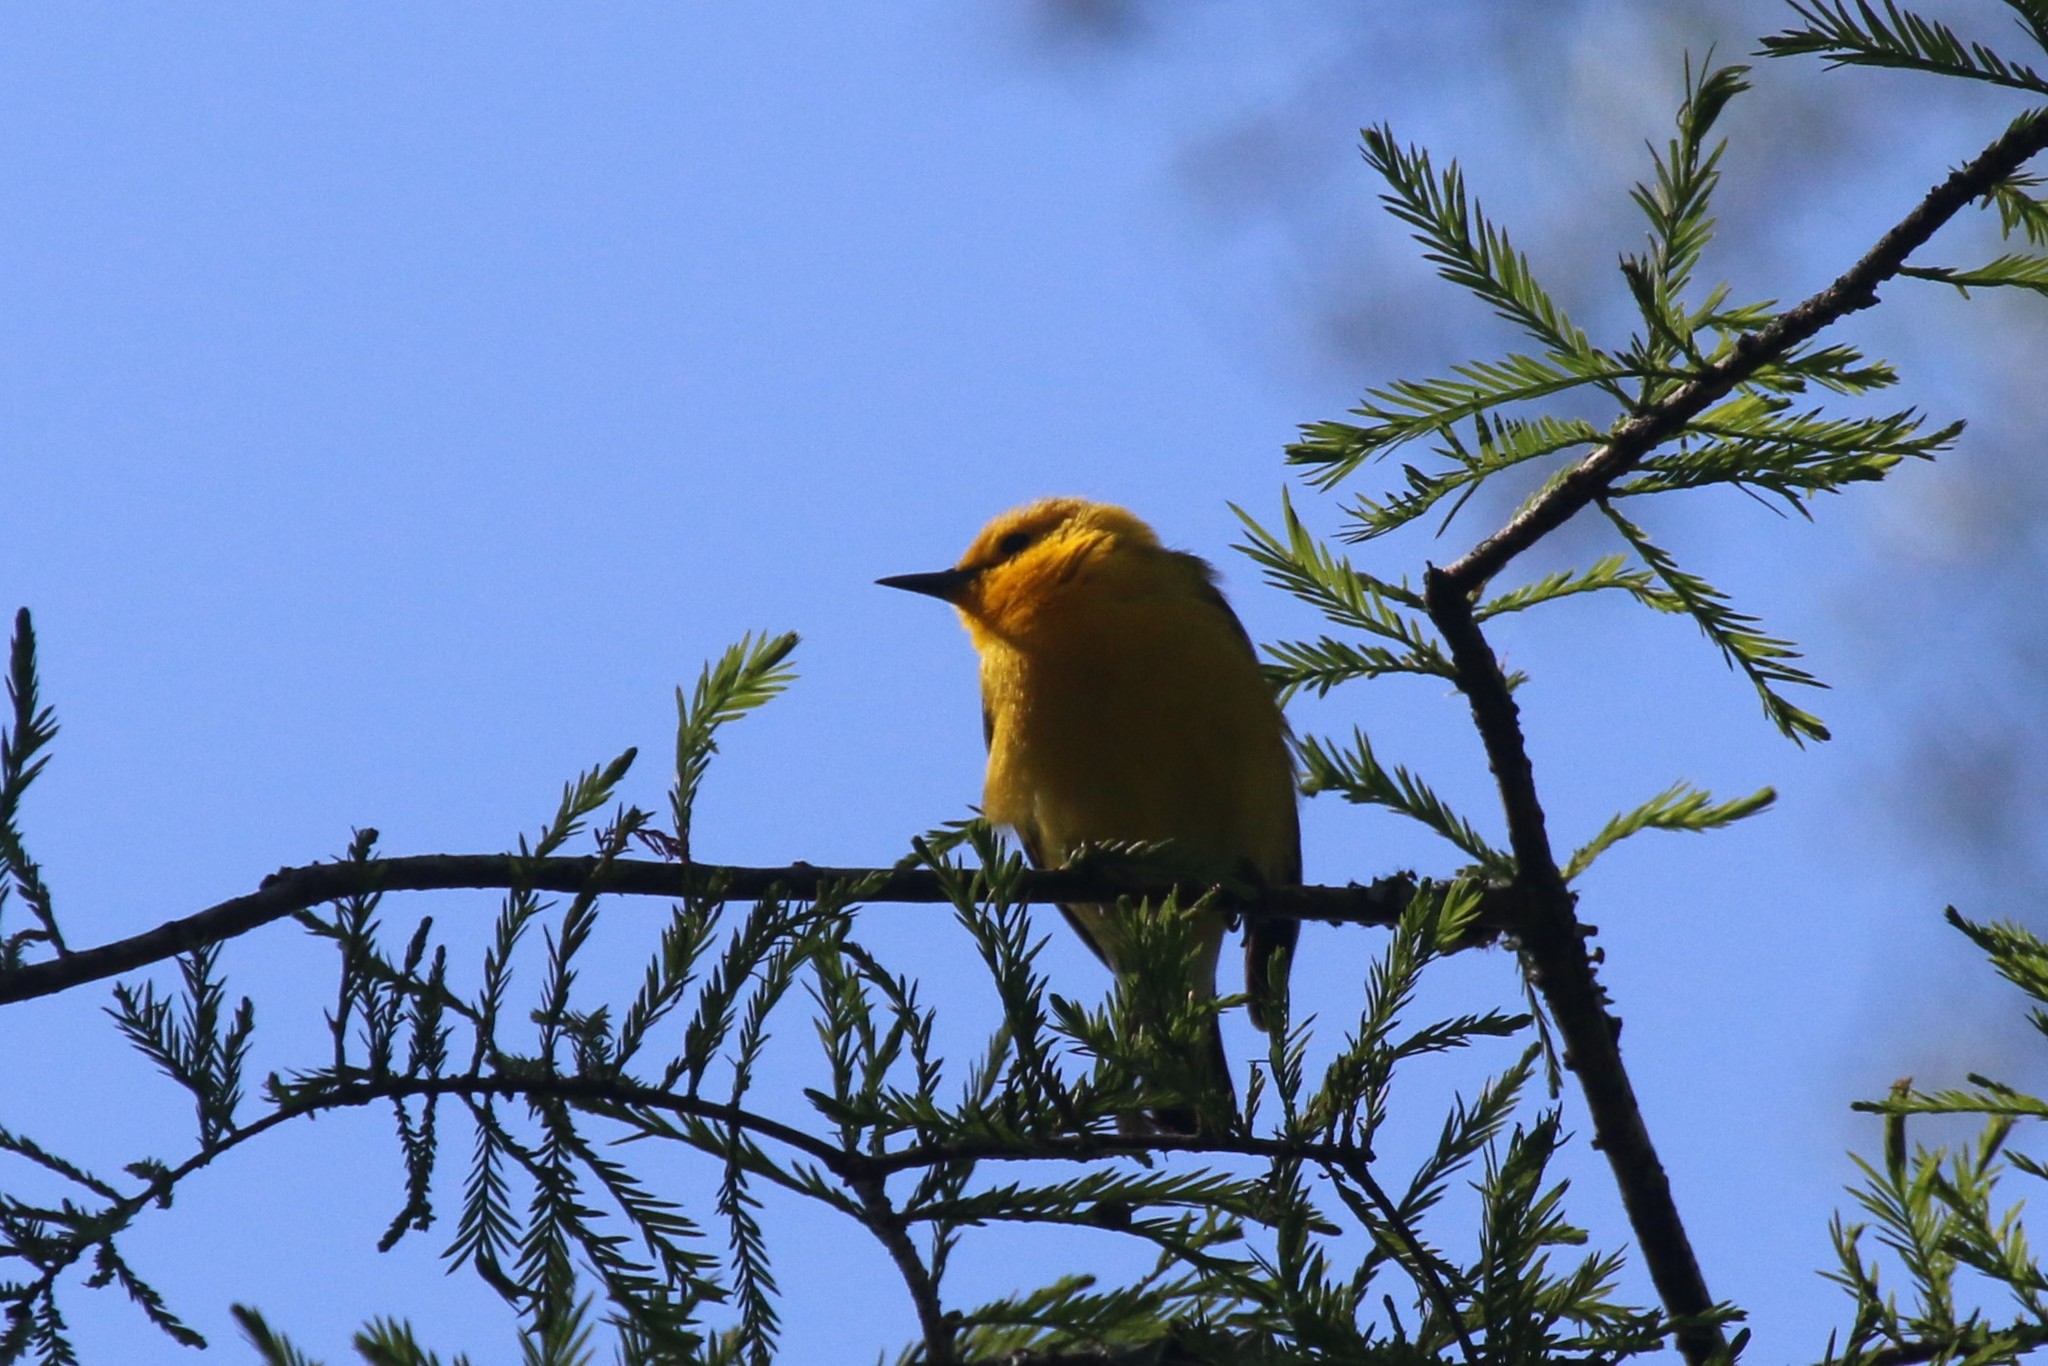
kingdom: Animalia
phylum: Chordata
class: Aves
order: Passeriformes
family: Parulidae
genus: Protonotaria
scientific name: Protonotaria citrea
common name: Prothonotary warbler
